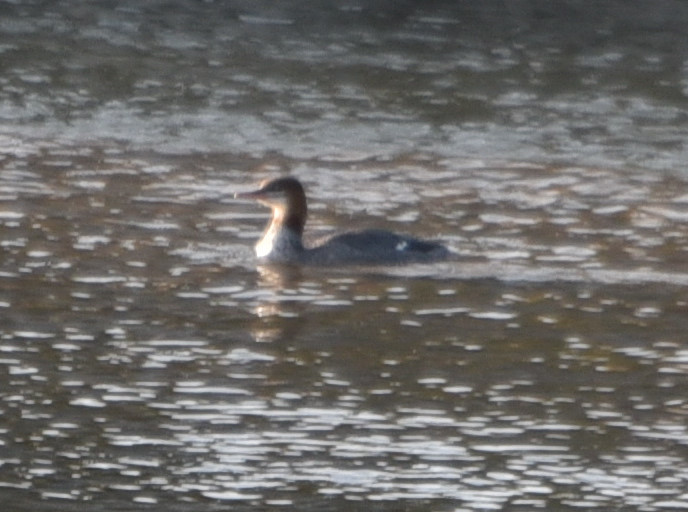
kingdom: Animalia
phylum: Chordata
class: Aves
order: Anseriformes
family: Anatidae
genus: Mergus
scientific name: Mergus merganser
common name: Common merganser
